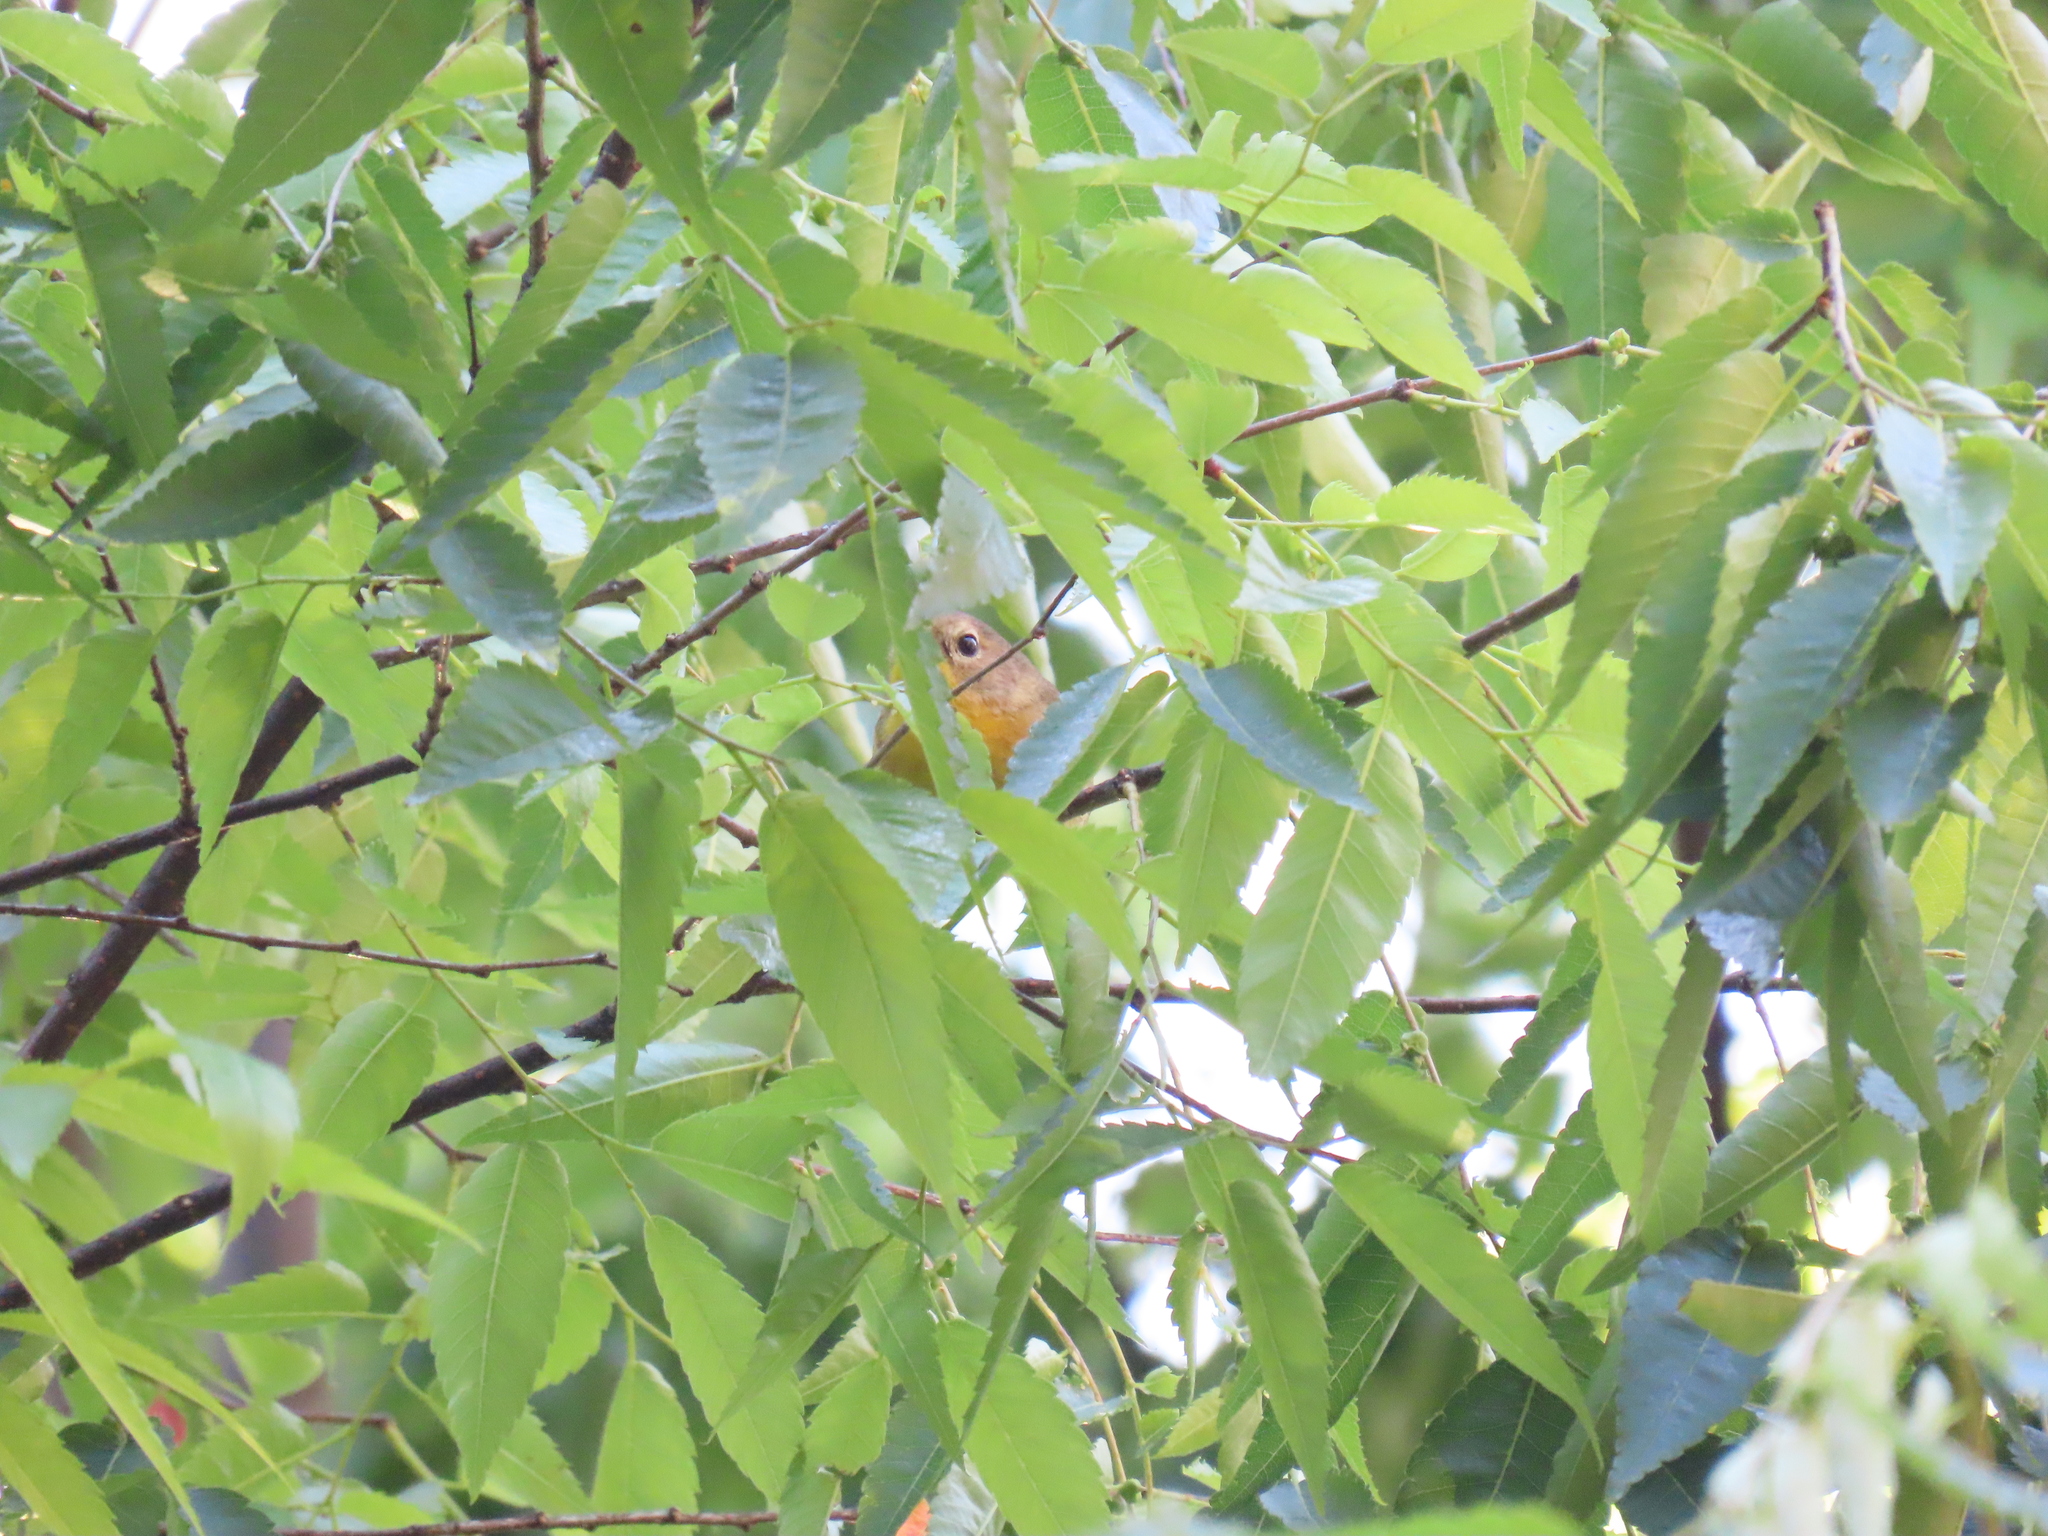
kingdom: Animalia
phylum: Chordata
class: Aves
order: Passeriformes
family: Parulidae
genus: Geothlypis
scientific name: Geothlypis trichas
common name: Common yellowthroat
